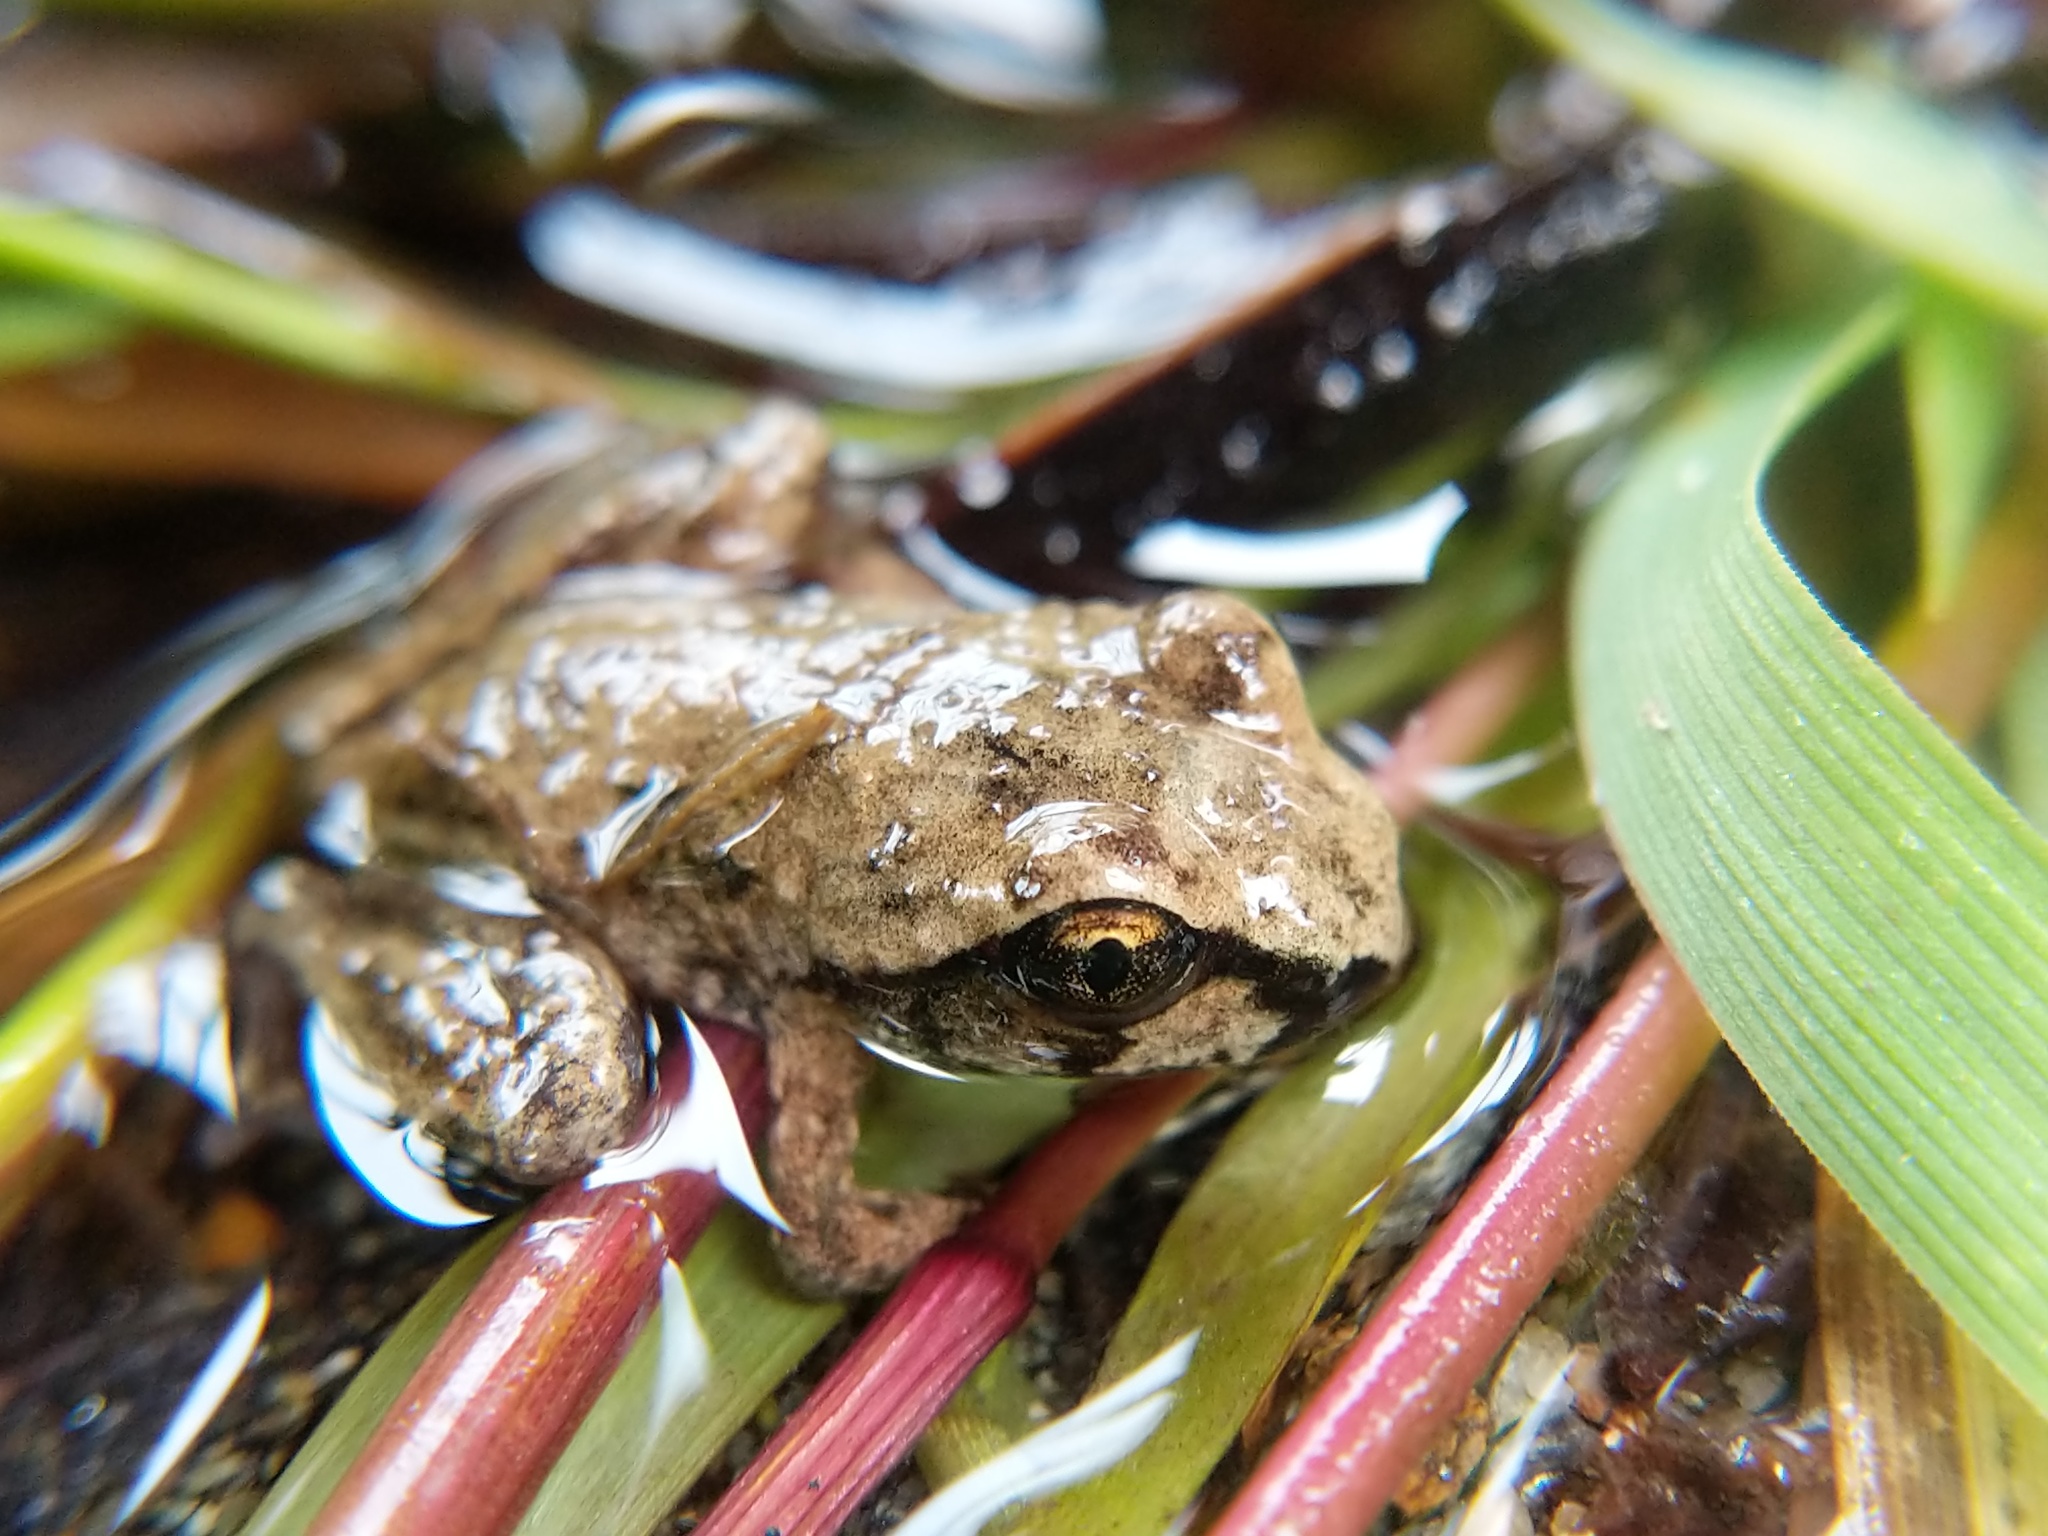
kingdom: Animalia
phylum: Chordata
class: Amphibia
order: Anura
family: Ascaphidae
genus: Ascaphus
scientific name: Ascaphus truei
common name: Tailed frog
